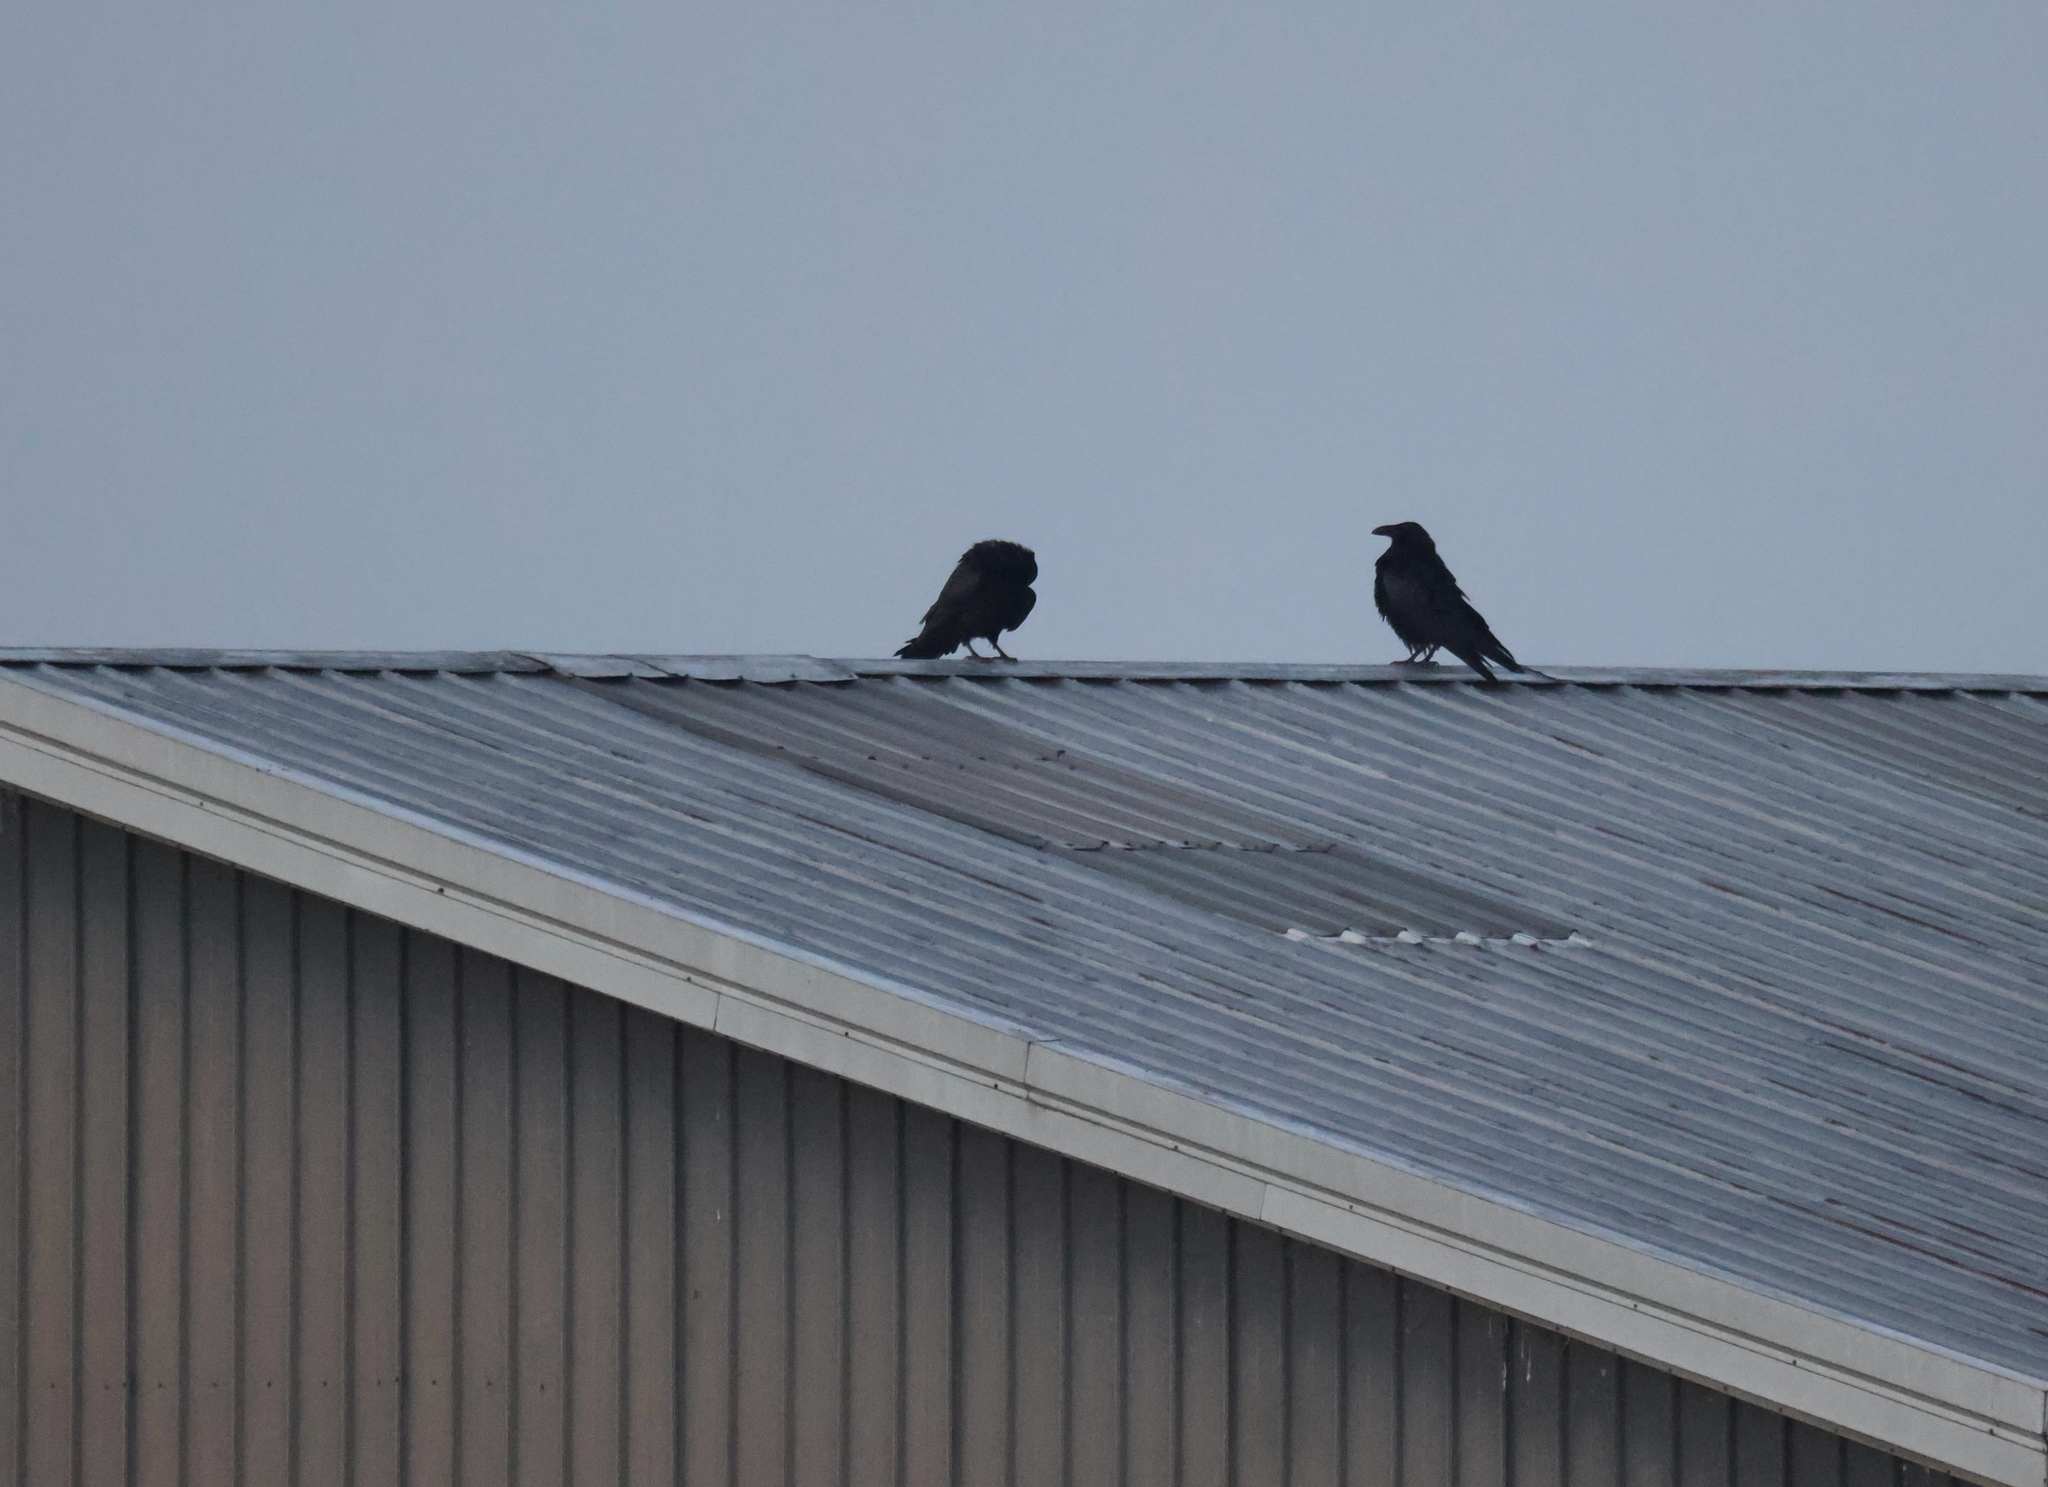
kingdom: Animalia
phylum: Chordata
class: Aves
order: Passeriformes
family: Corvidae
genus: Corvus
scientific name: Corvus corax
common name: Common raven
